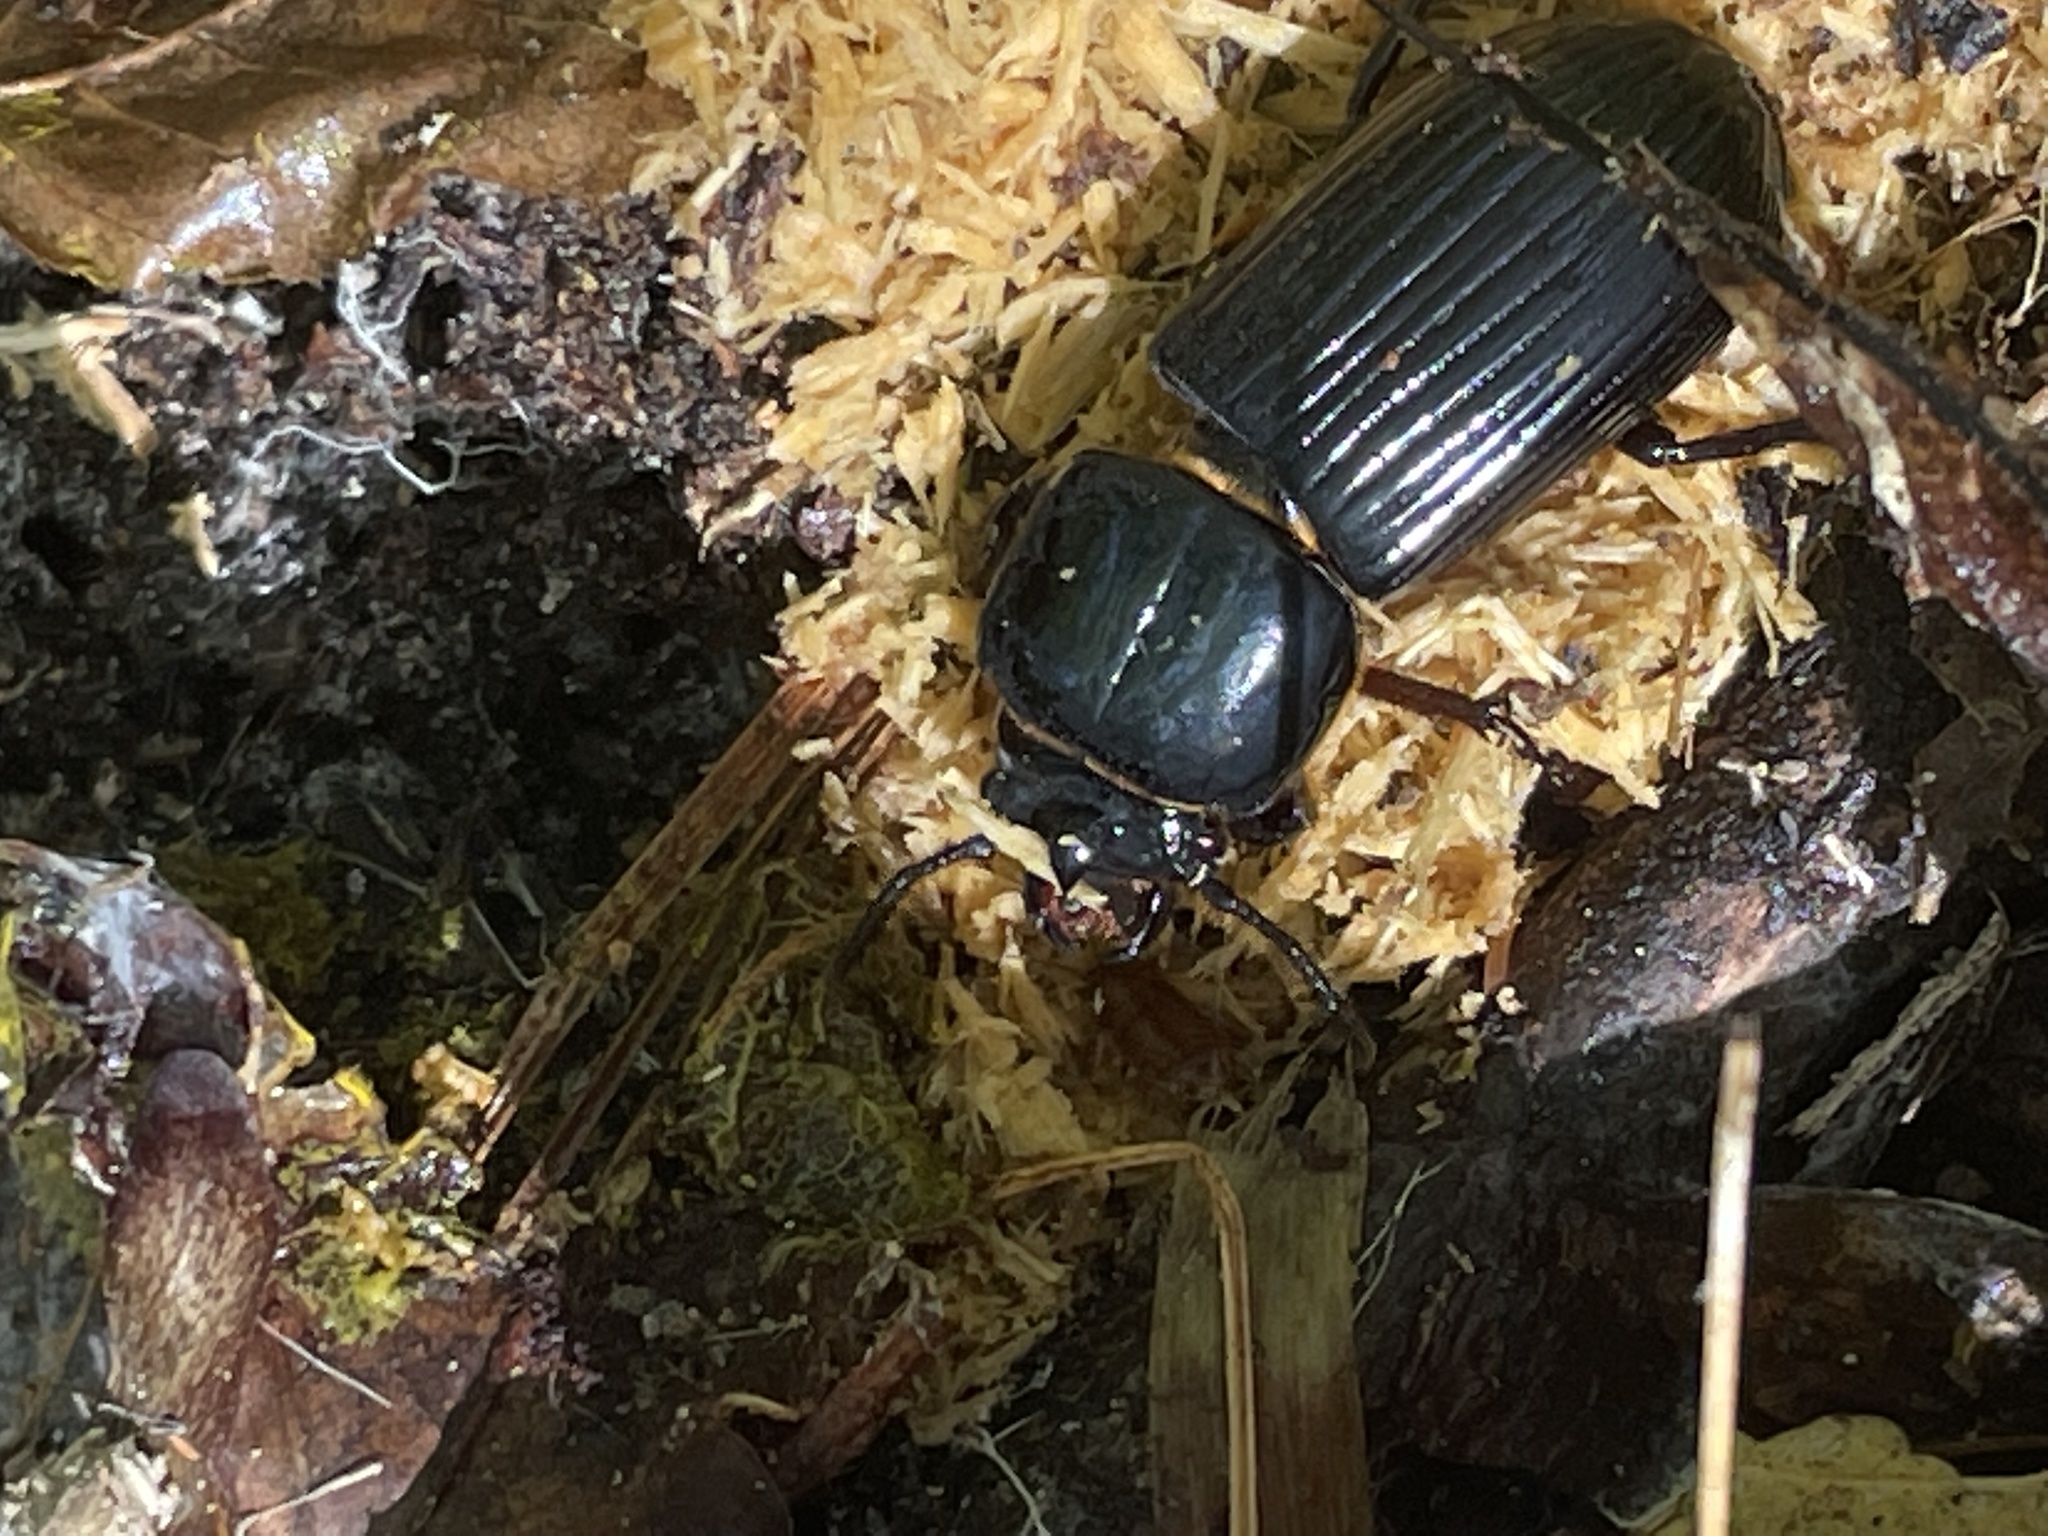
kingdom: Animalia
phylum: Arthropoda
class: Insecta
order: Coleoptera
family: Passalidae
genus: Odontotaenius
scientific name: Odontotaenius disjunctus
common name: Patent leather beetle
